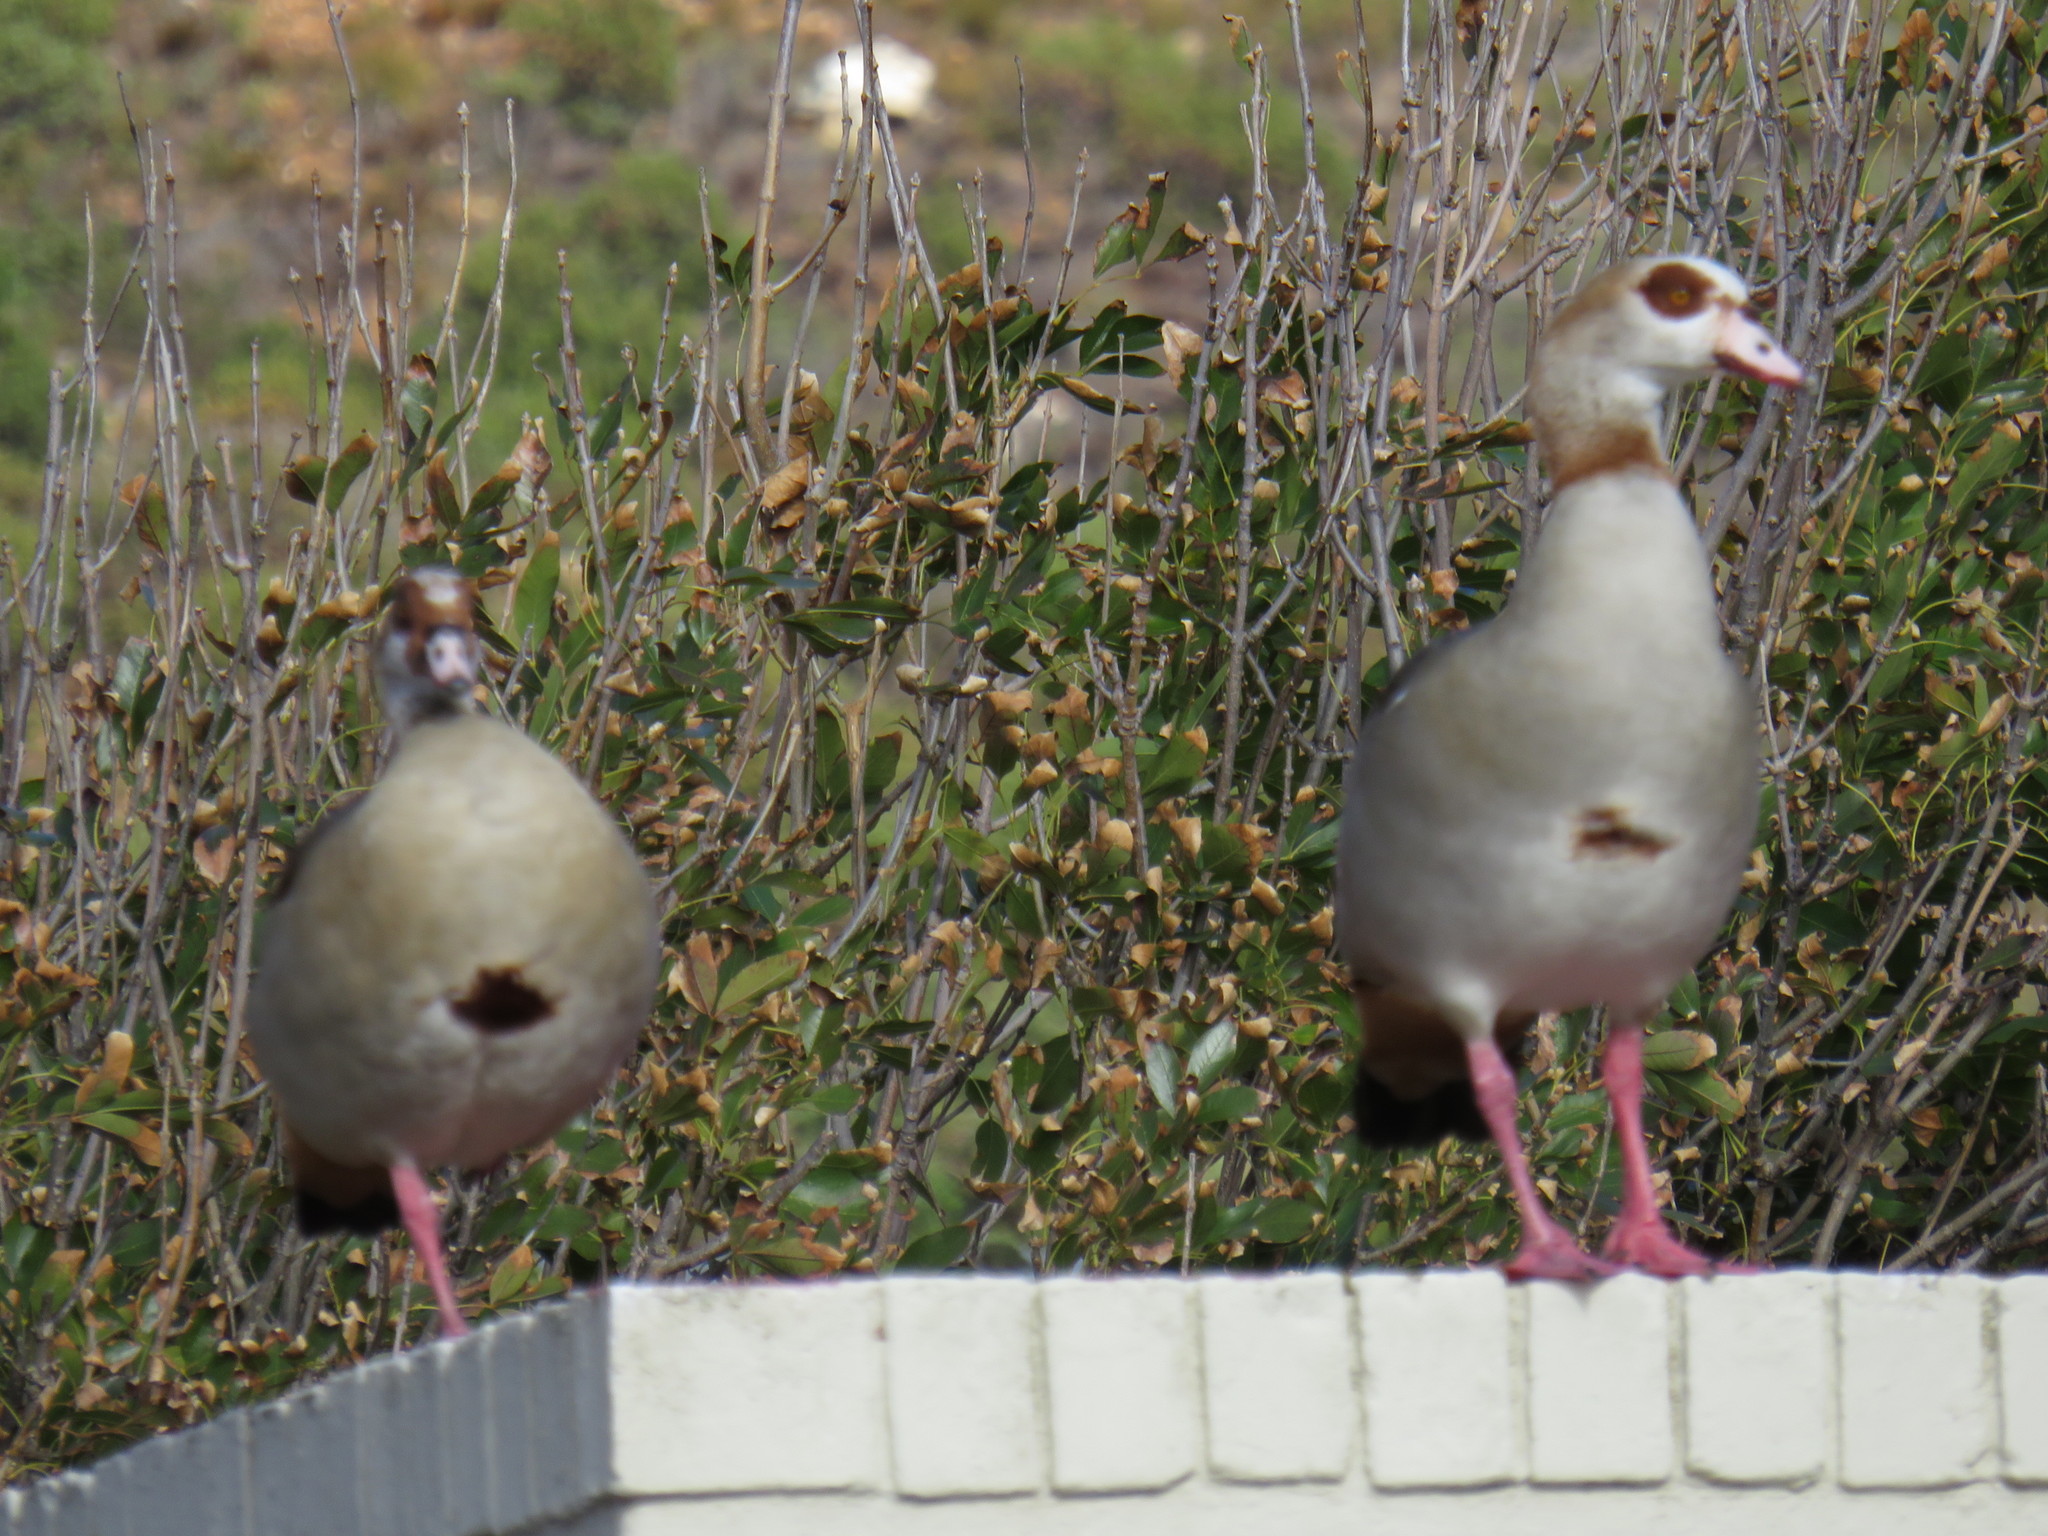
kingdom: Animalia
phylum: Chordata
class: Aves
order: Anseriformes
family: Anatidae
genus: Alopochen
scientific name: Alopochen aegyptiaca
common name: Egyptian goose
